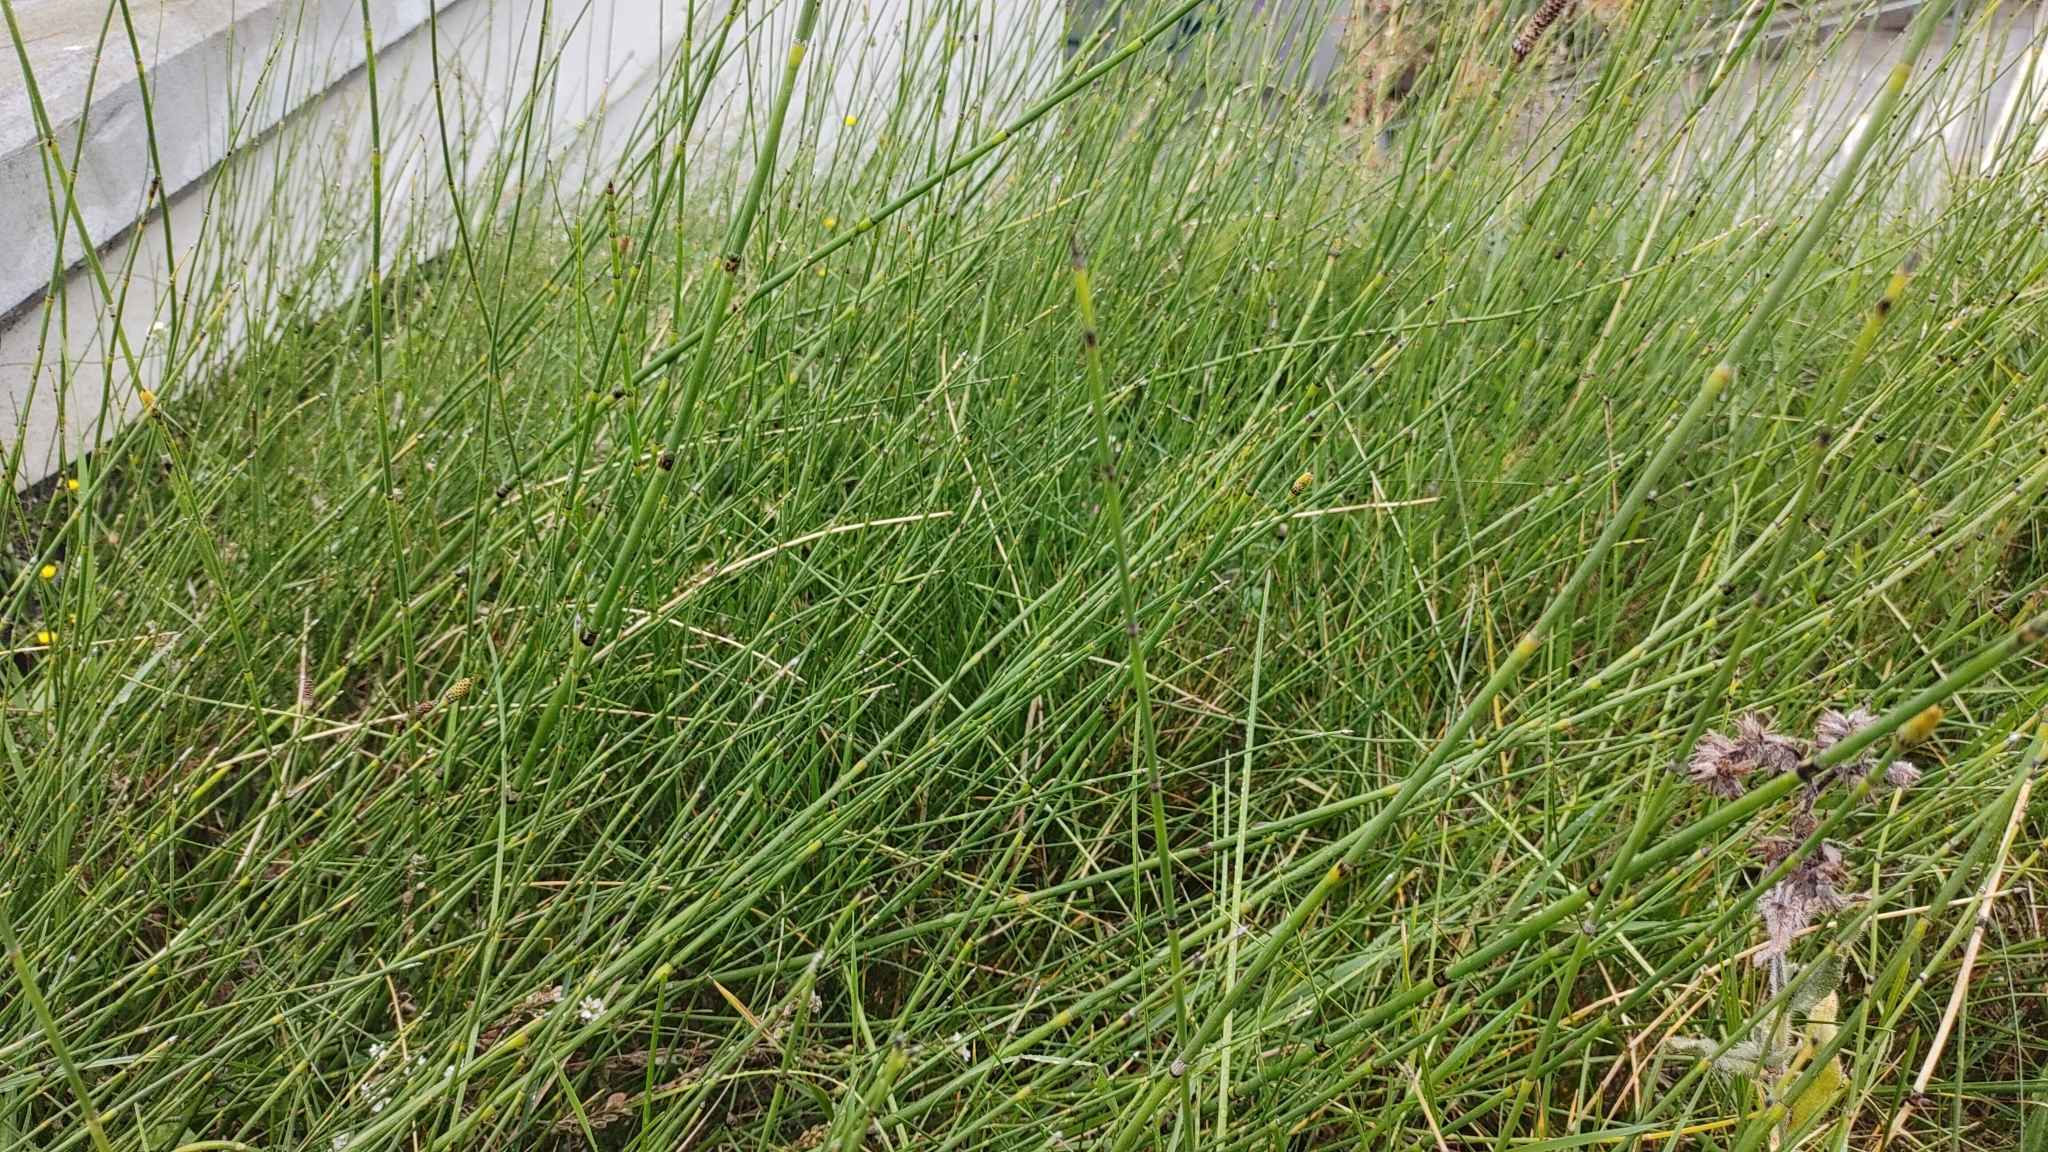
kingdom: Plantae
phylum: Tracheophyta
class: Polypodiopsida
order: Equisetales
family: Equisetaceae
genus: Equisetum
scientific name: Equisetum ramosissimum
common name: Branched horsetail
